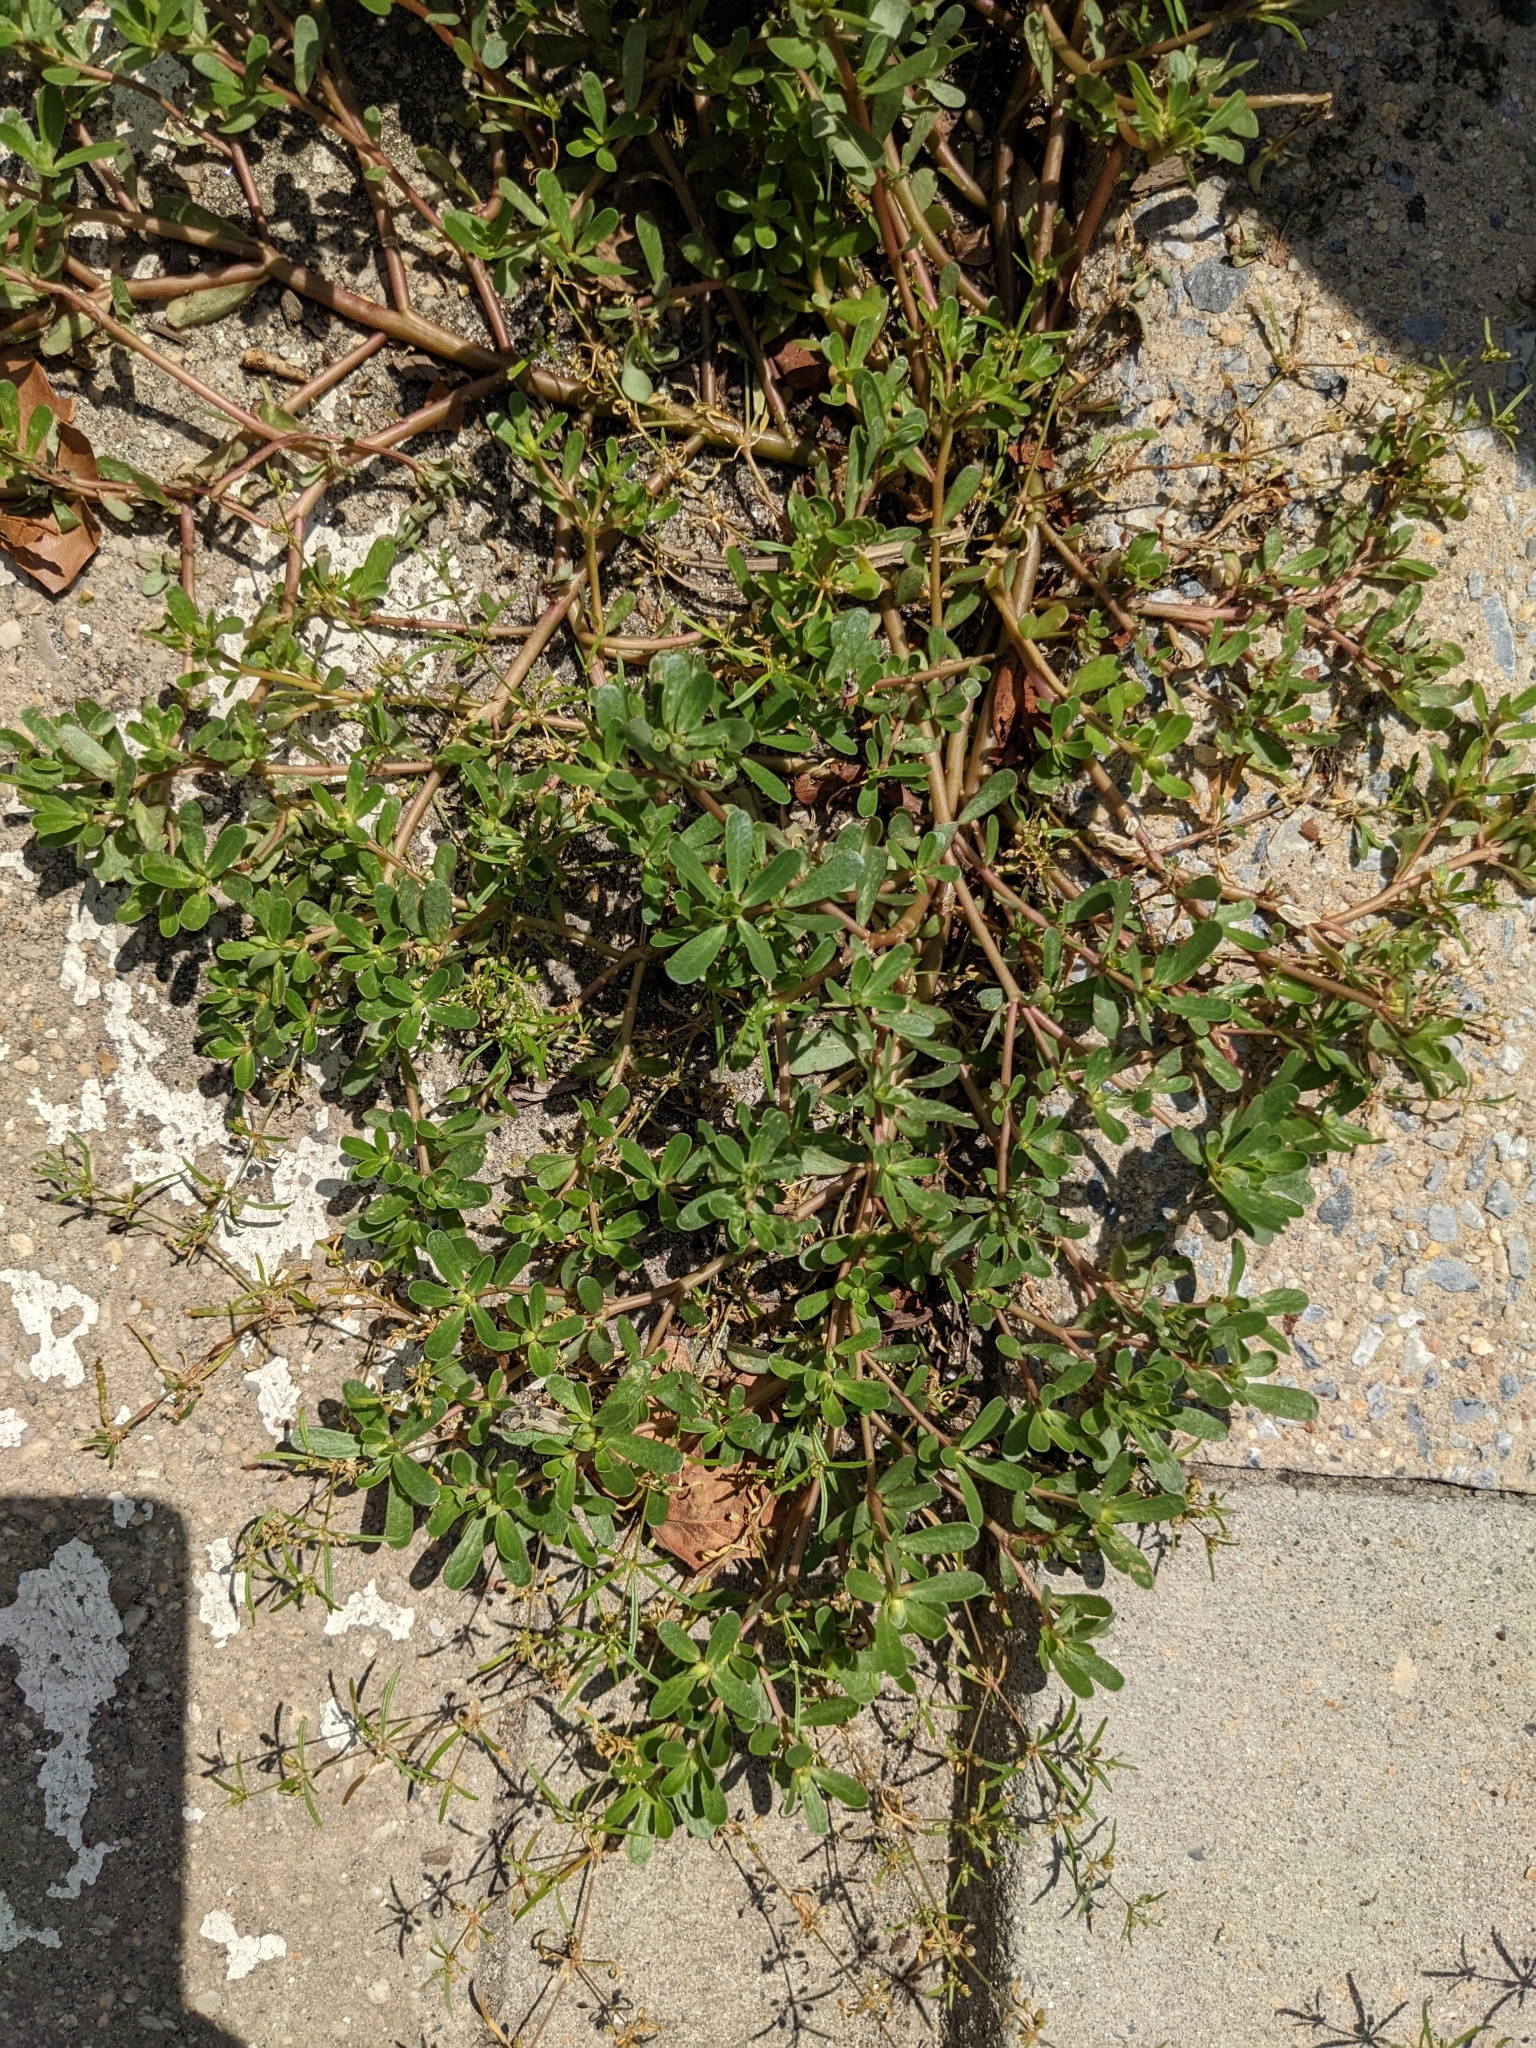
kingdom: Plantae
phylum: Tracheophyta
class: Magnoliopsida
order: Caryophyllales
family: Portulacaceae
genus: Portulaca
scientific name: Portulaca oleracea
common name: Common purslane
